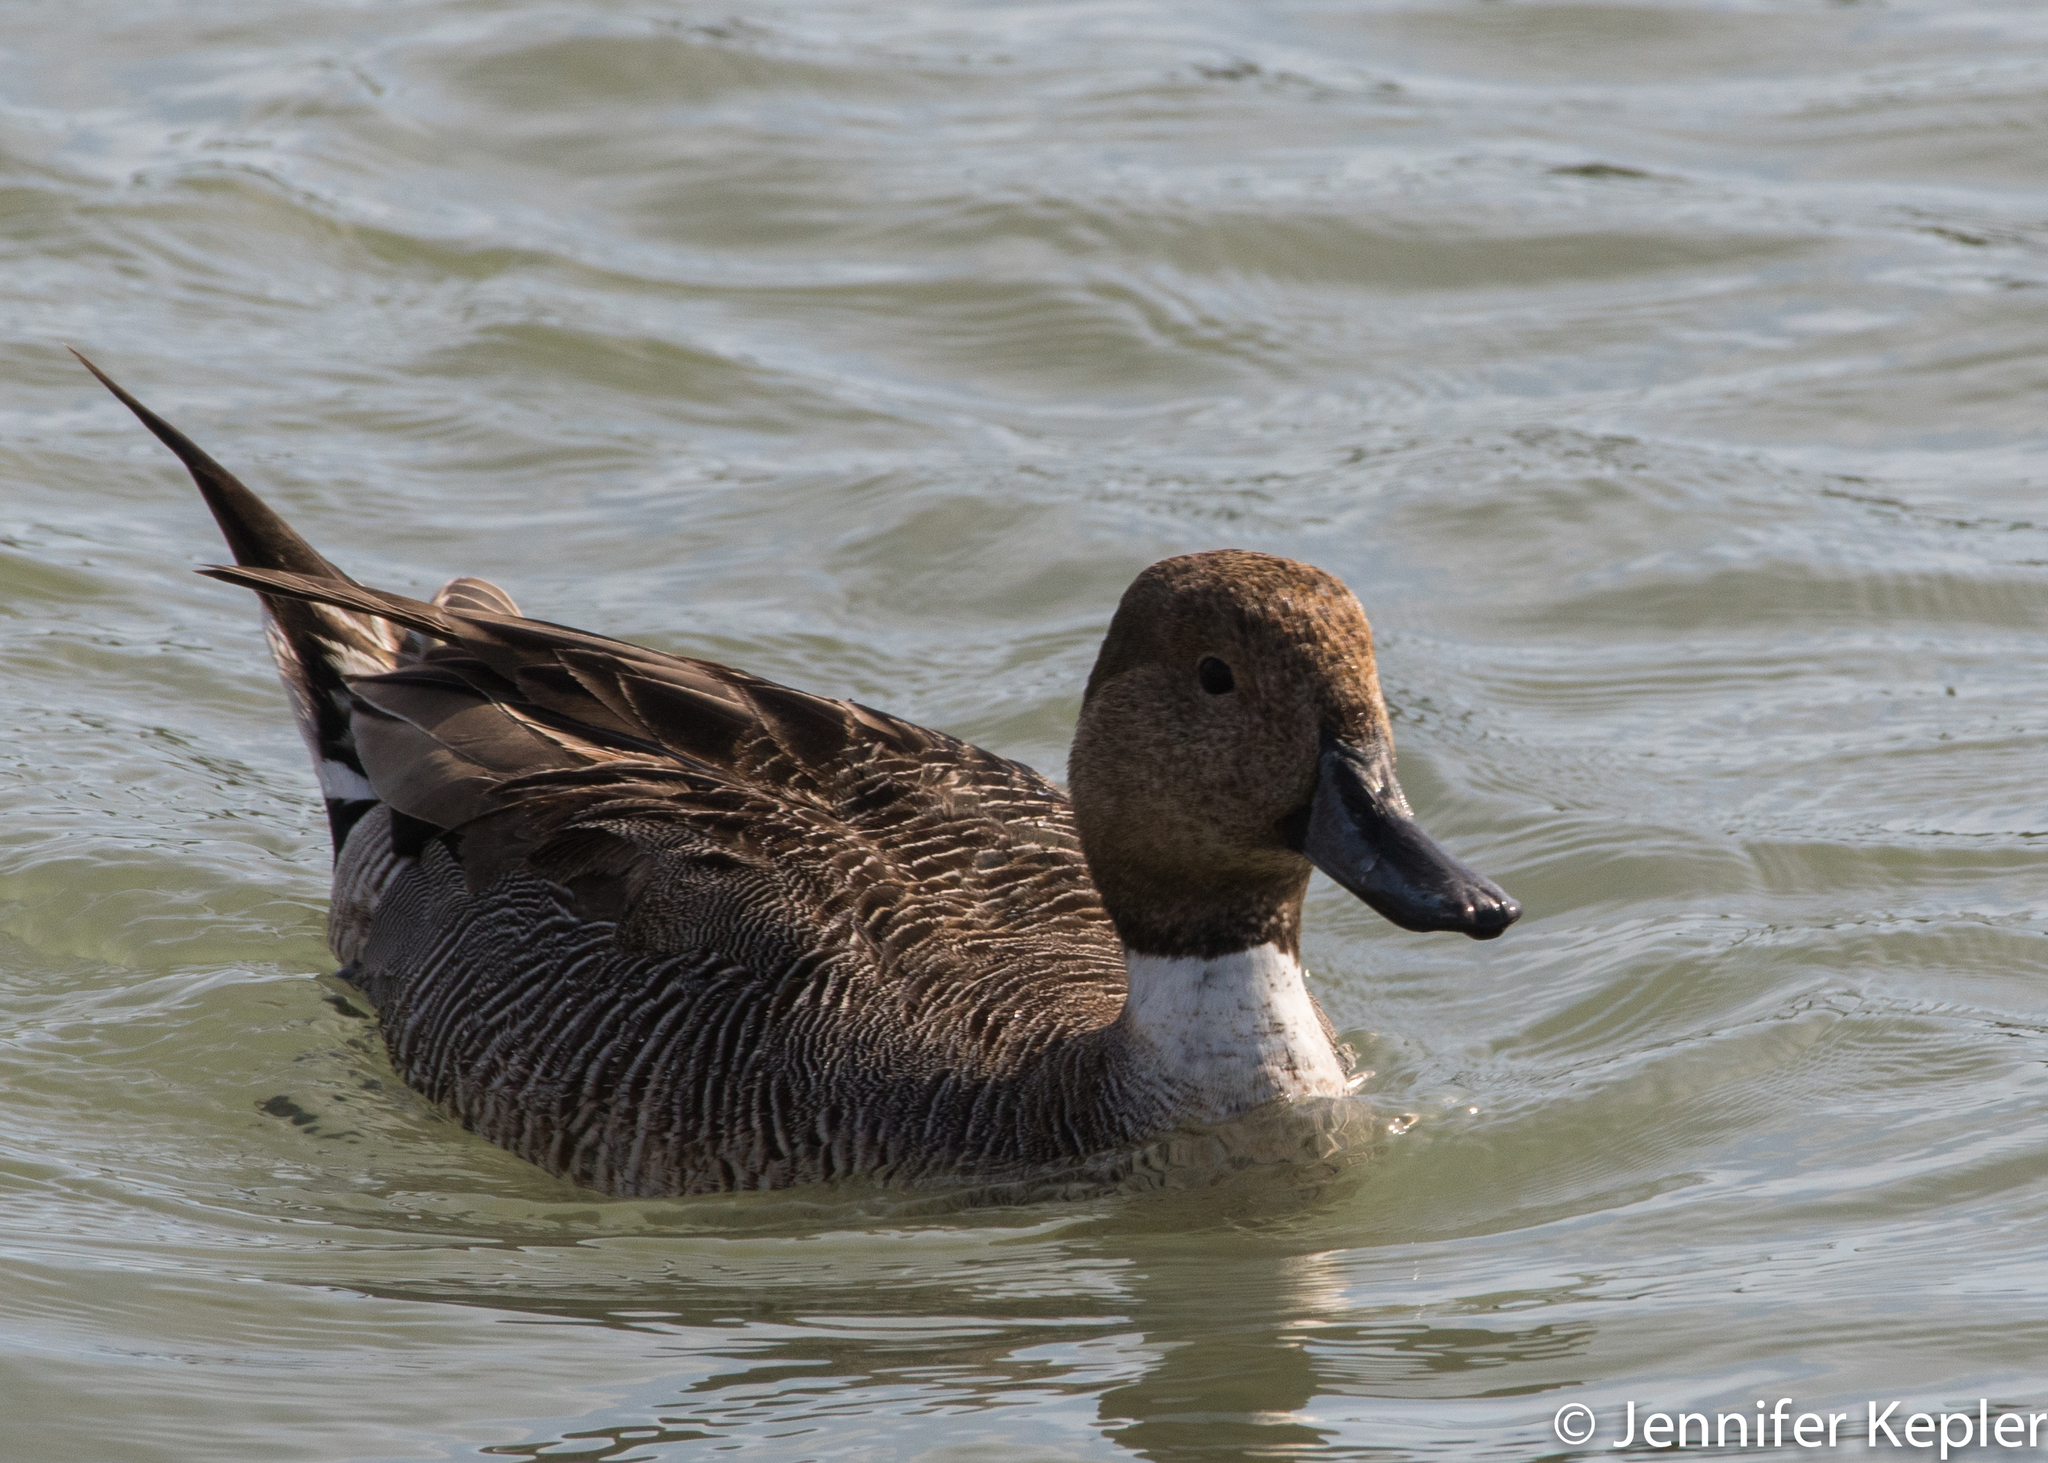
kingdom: Animalia
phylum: Chordata
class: Aves
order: Anseriformes
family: Anatidae
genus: Anas
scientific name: Anas acuta
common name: Northern pintail
